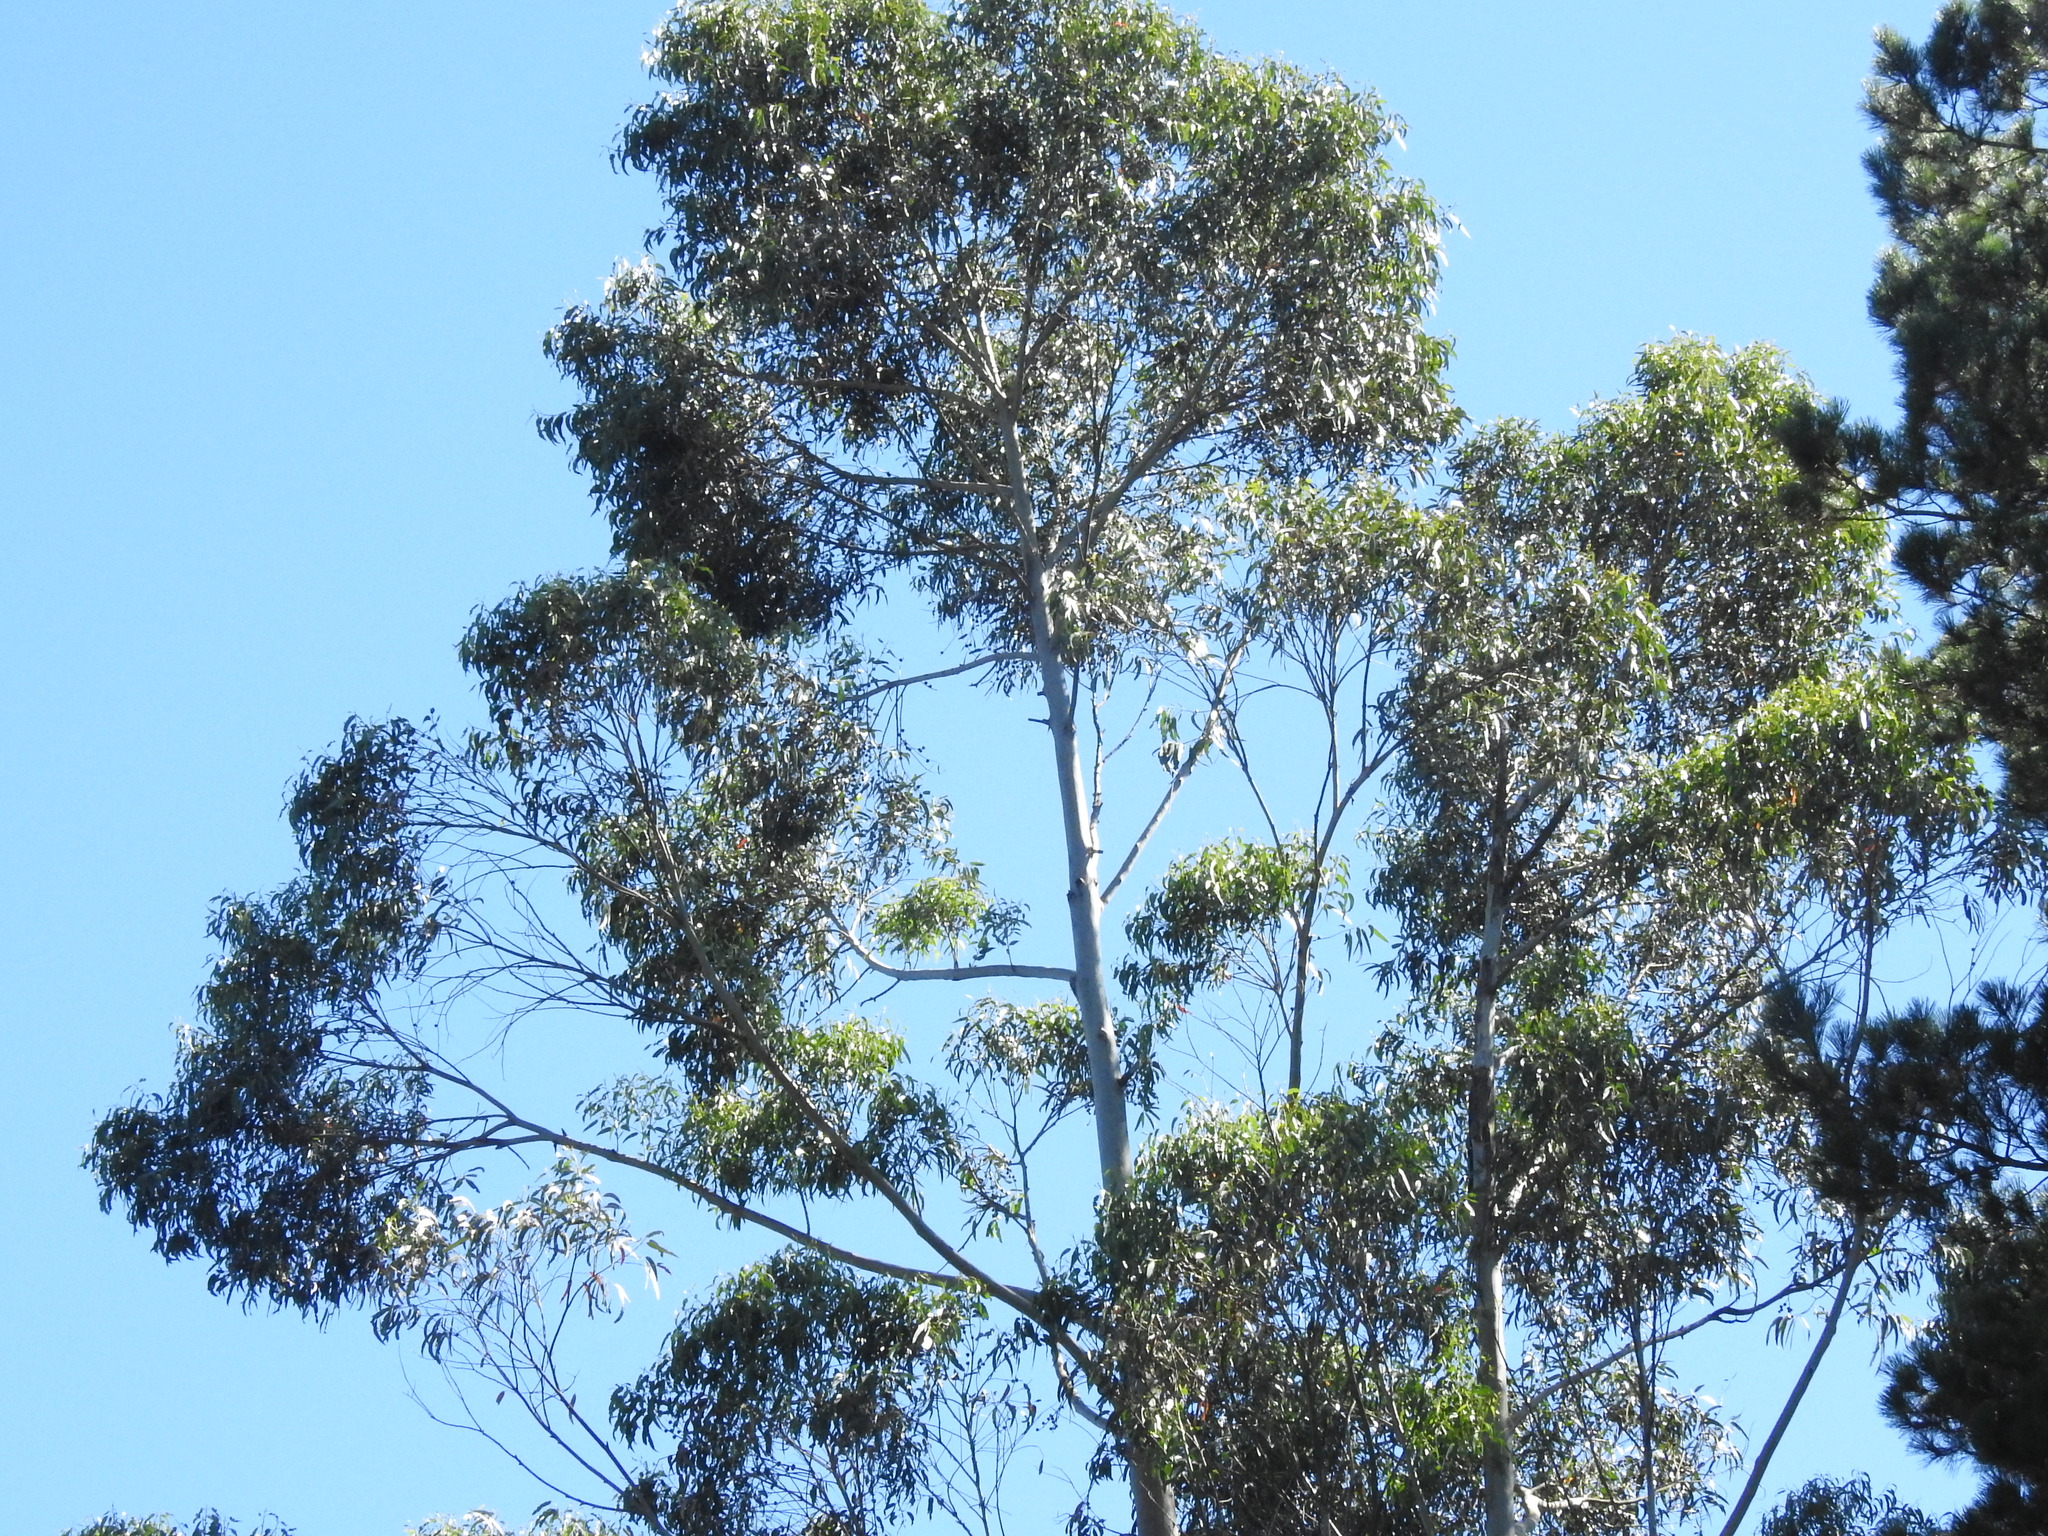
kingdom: Plantae
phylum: Tracheophyta
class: Magnoliopsida
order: Myrtales
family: Myrtaceae
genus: Eucalyptus
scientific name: Eucalyptus globulus
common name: Southern blue-gum
